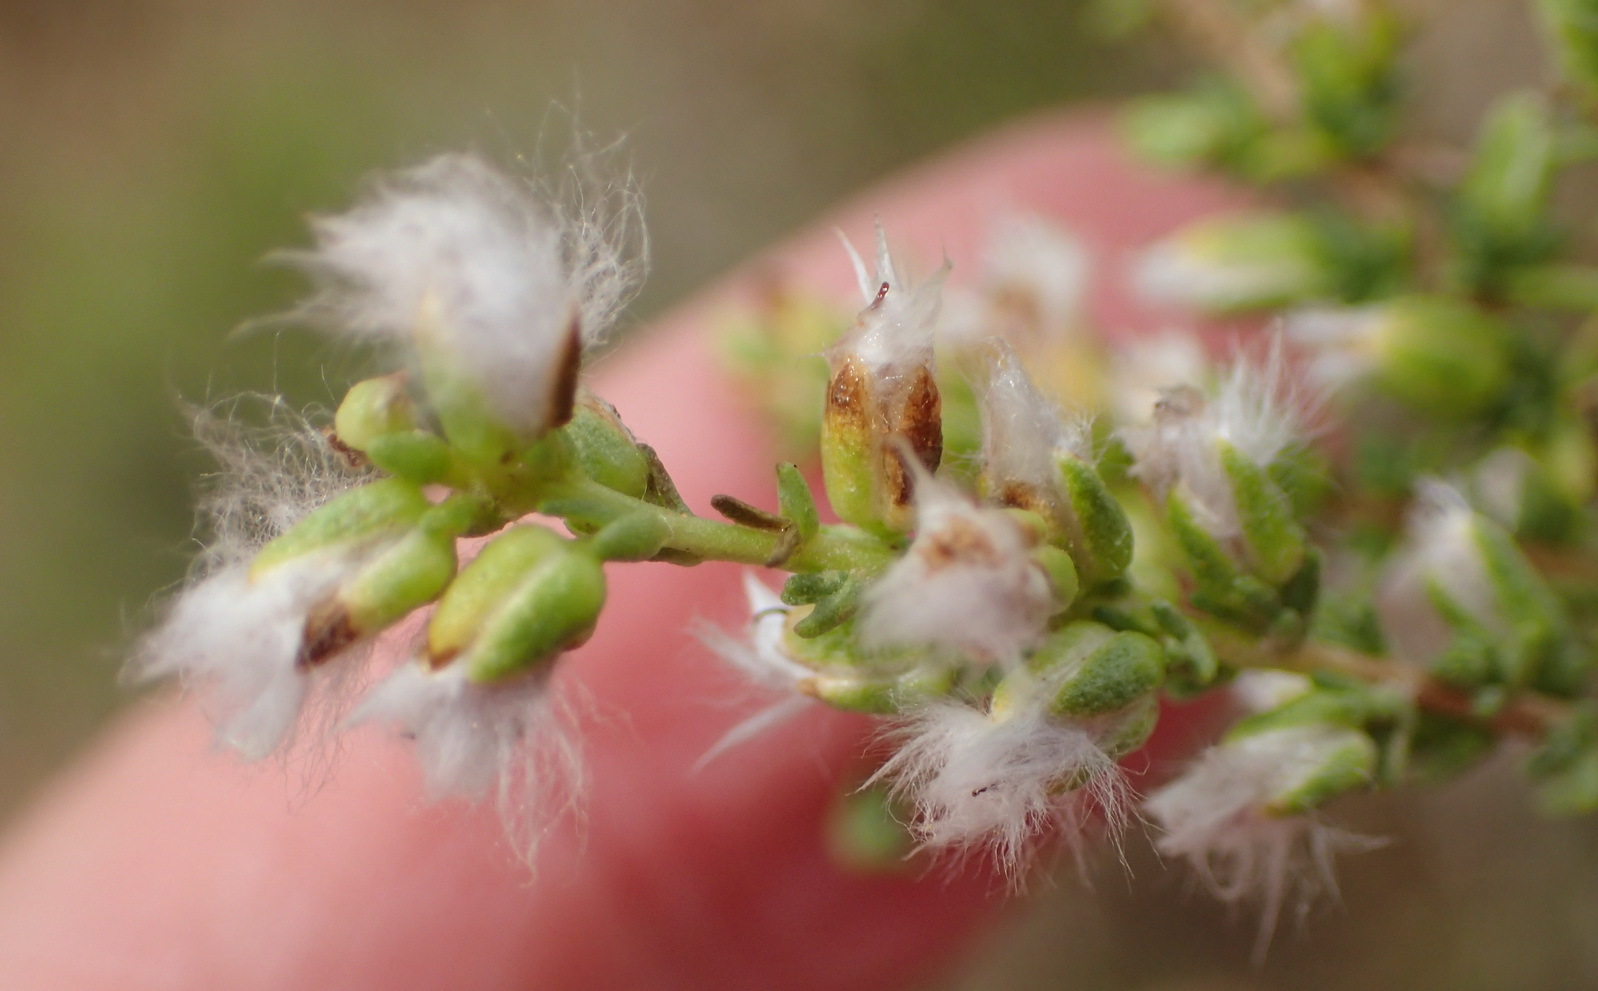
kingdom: Plantae
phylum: Tracheophyta
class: Magnoliopsida
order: Asterales
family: Asteraceae
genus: Eriocephalus
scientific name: Eriocephalus ericoides
